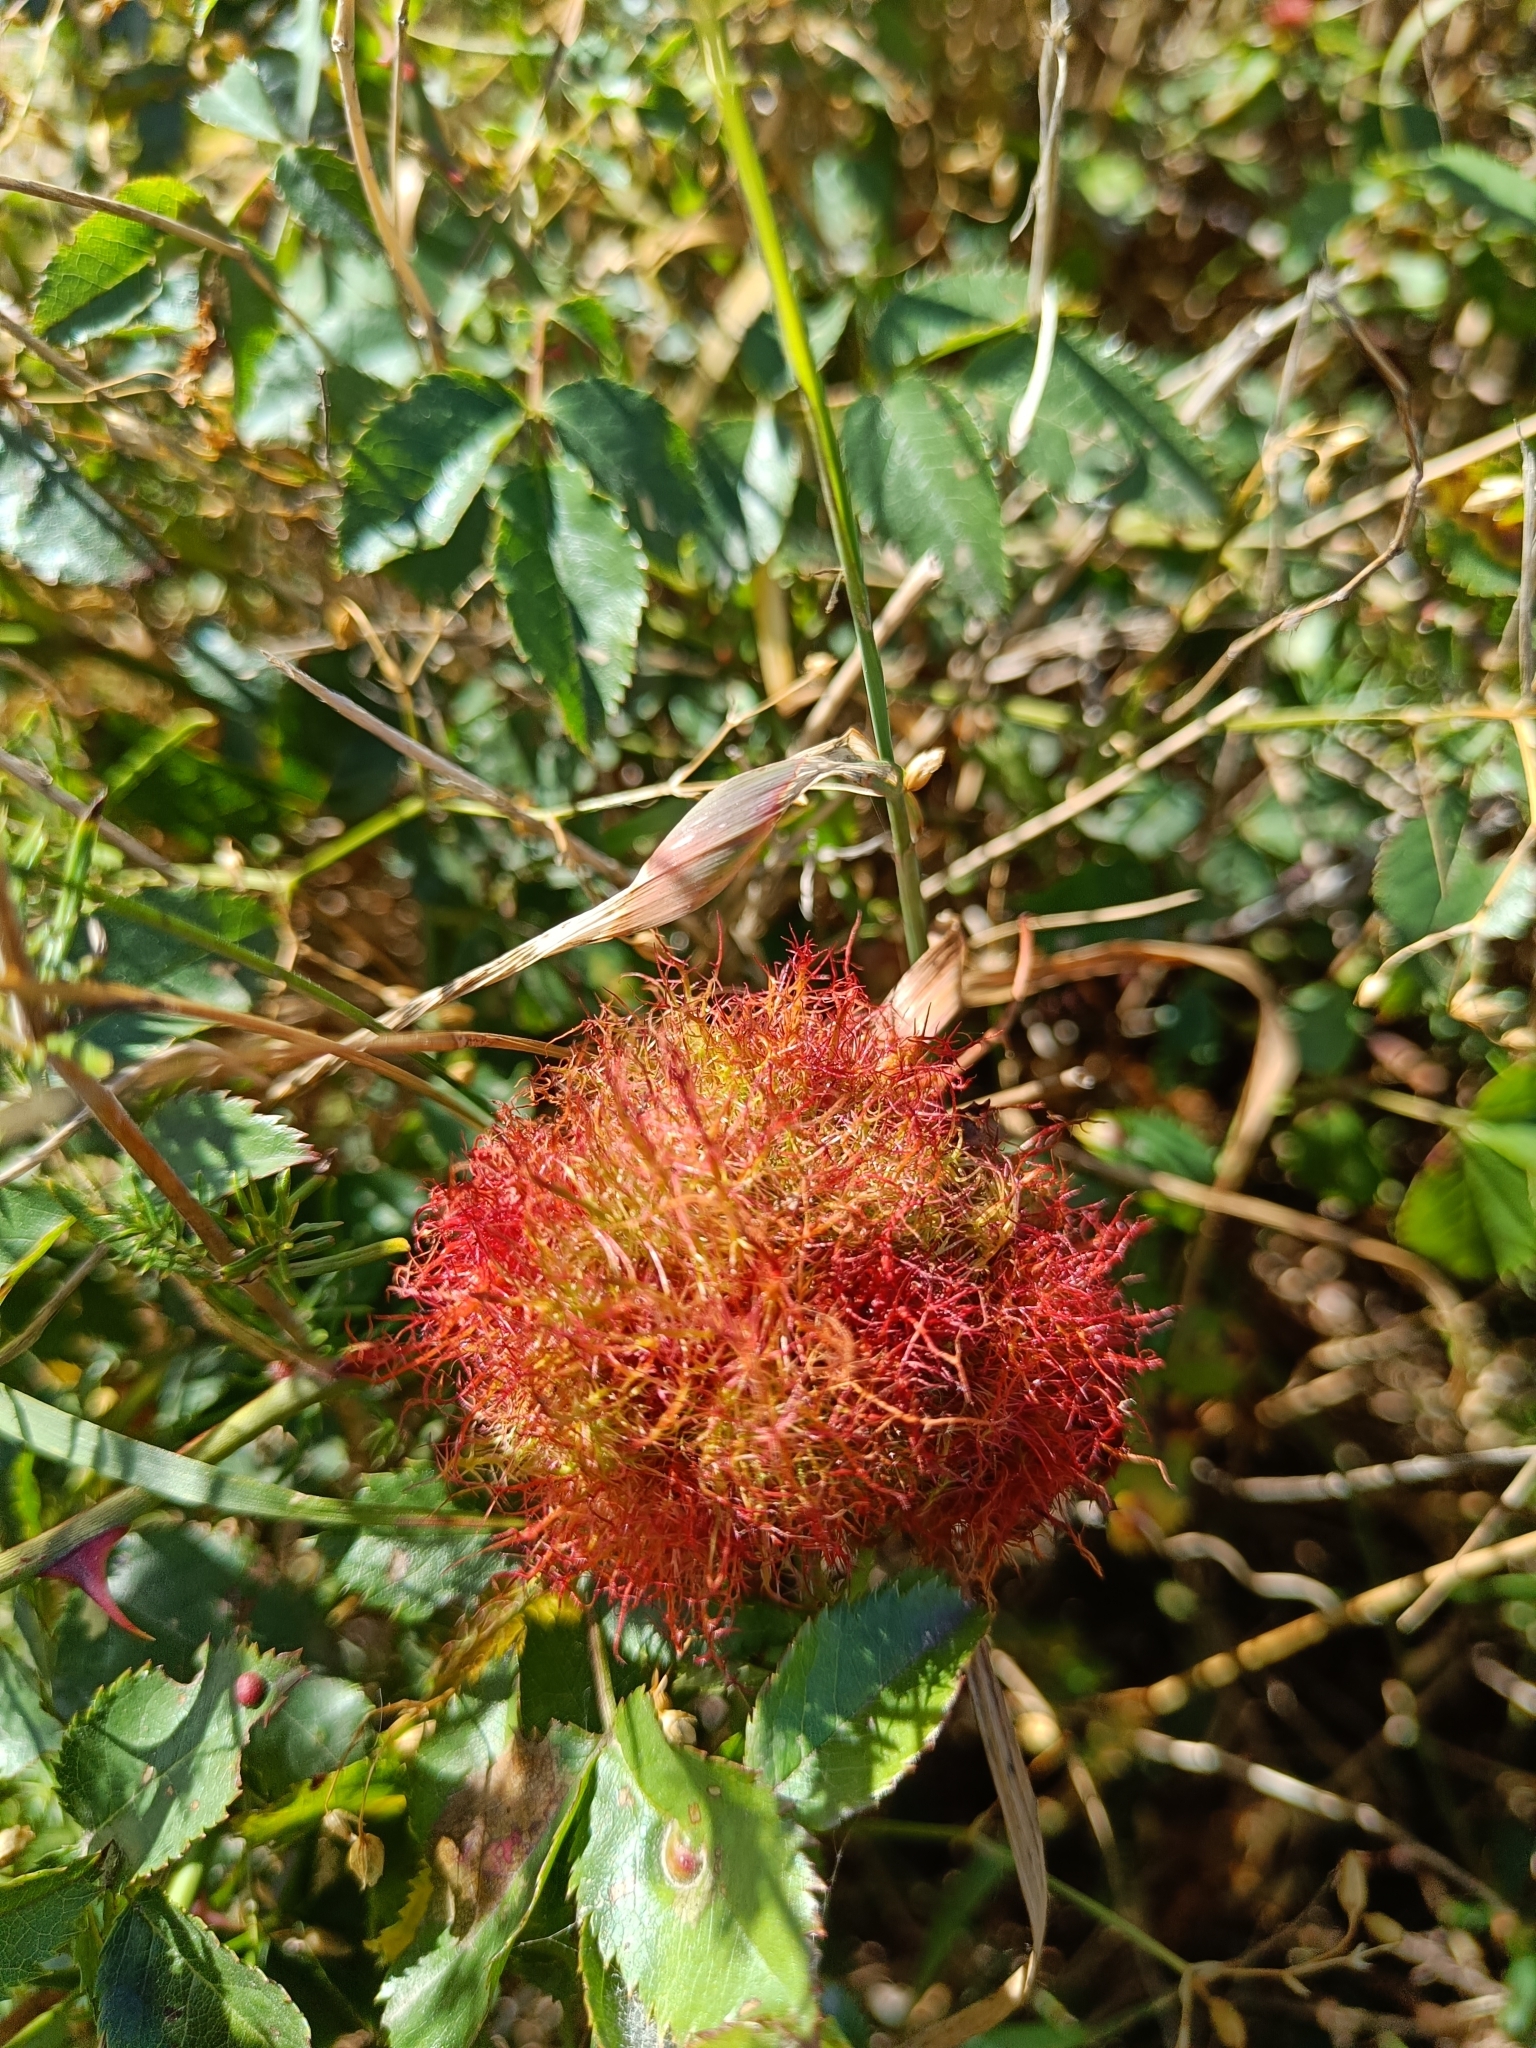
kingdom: Animalia
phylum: Arthropoda
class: Insecta
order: Hymenoptera
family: Cynipidae
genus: Diplolepis
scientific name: Diplolepis rosae
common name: Bedeguar gall
